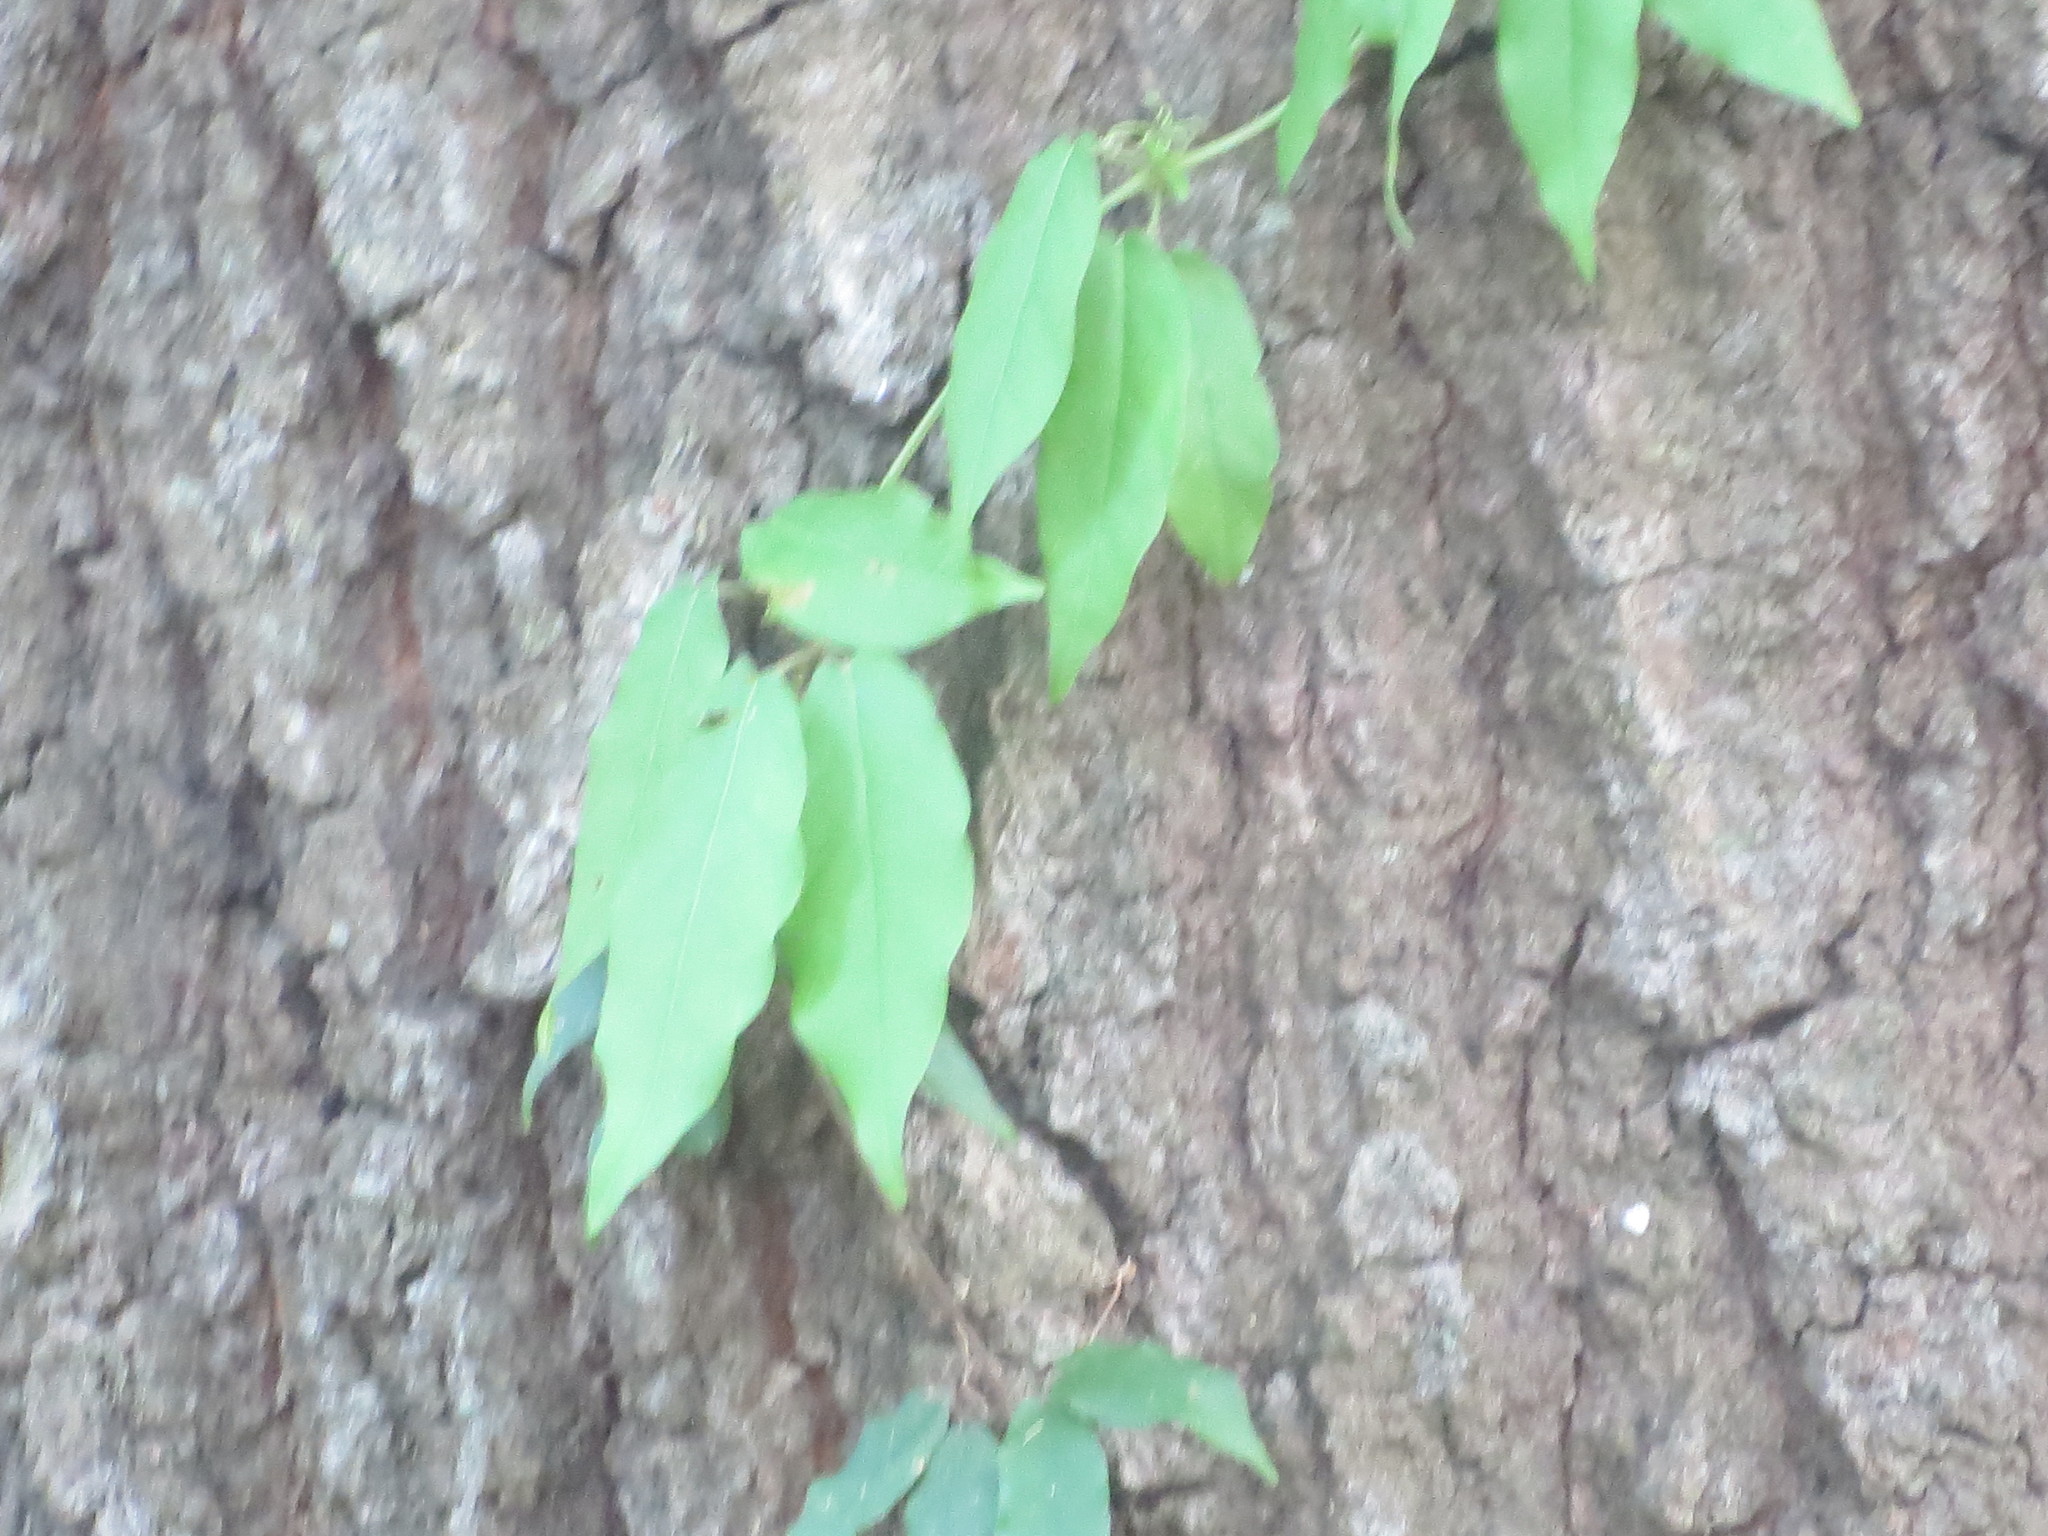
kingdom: Plantae
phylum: Tracheophyta
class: Magnoliopsida
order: Lamiales
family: Bignoniaceae
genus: Bignonia
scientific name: Bignonia capreolata
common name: Crossvine
